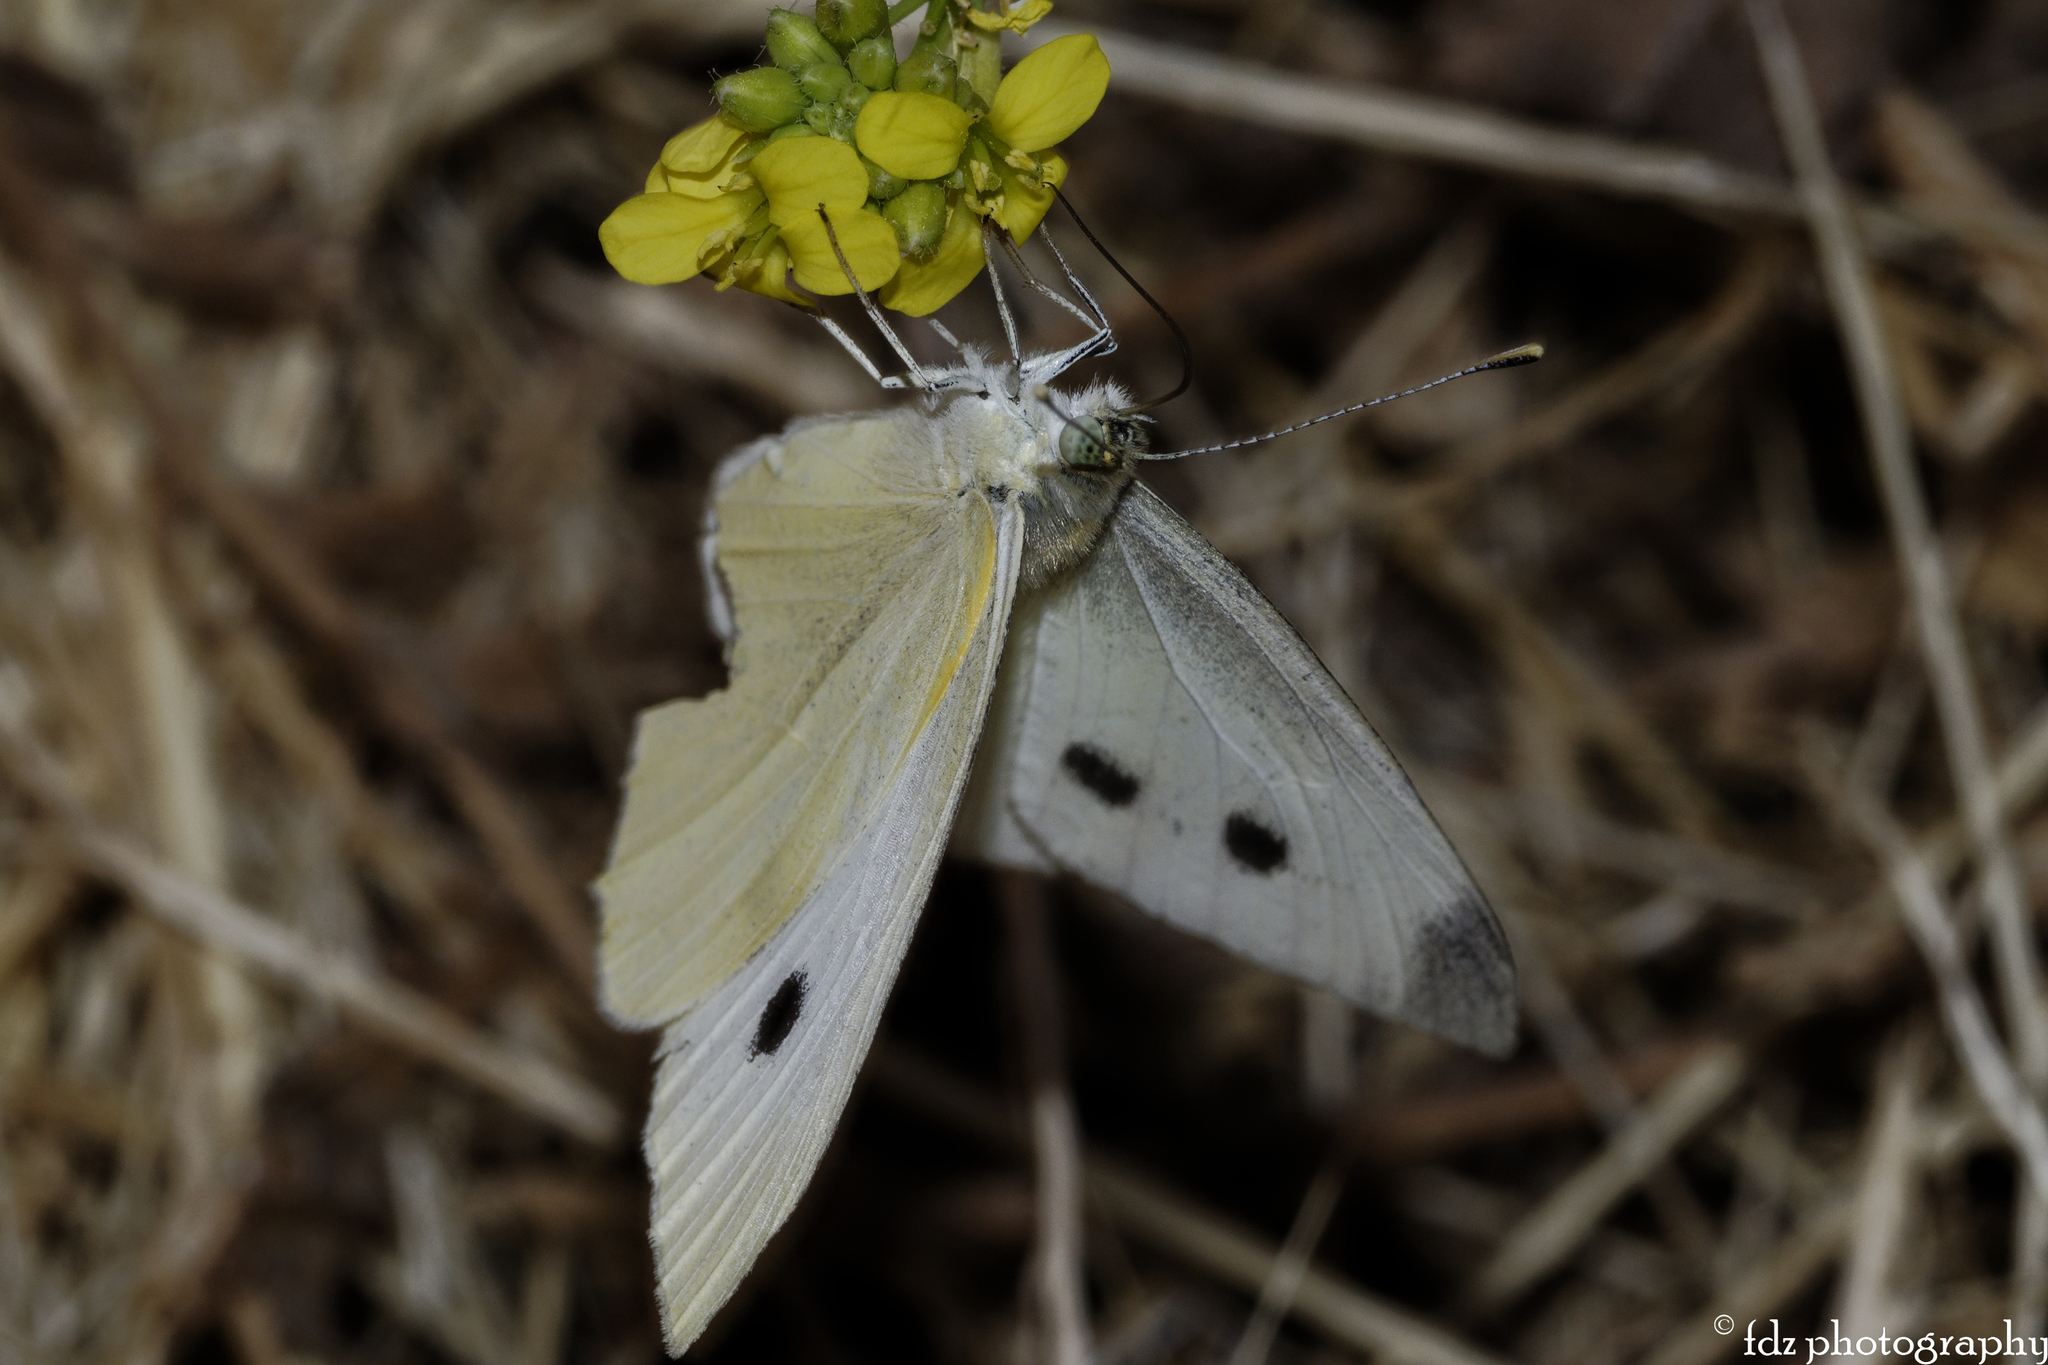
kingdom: Animalia
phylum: Arthropoda
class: Insecta
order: Lepidoptera
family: Pieridae
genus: Pieris
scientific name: Pieris rapae
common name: Small white
